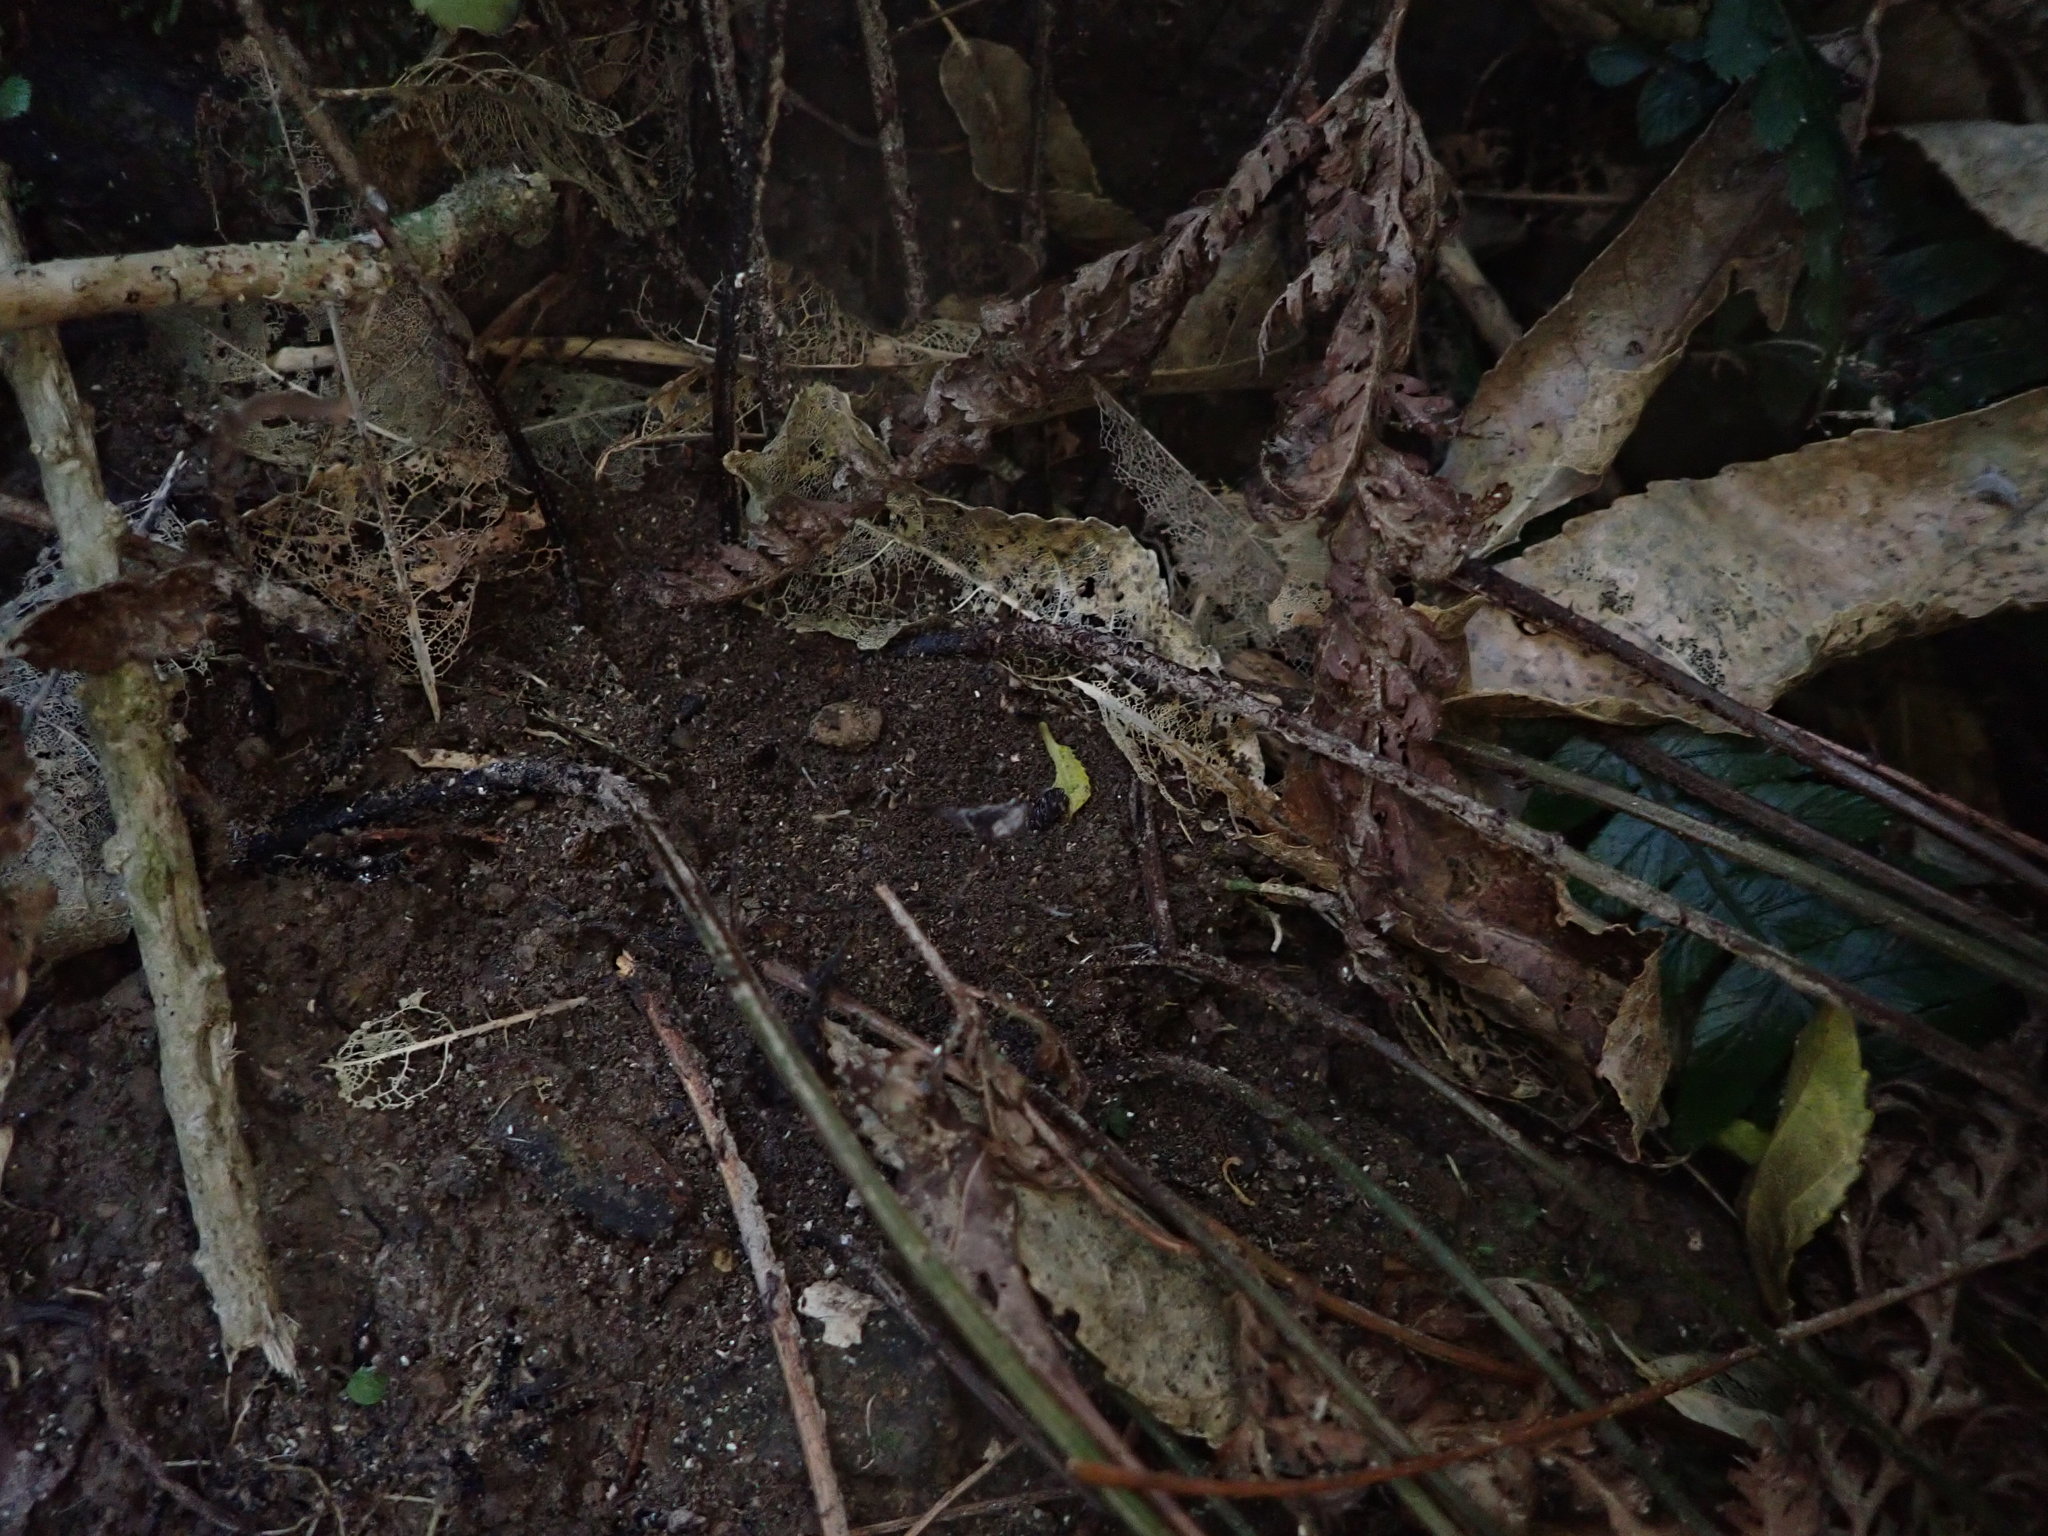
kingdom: Plantae
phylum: Tracheophyta
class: Polypodiopsida
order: Polypodiales
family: Dryopteridaceae
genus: Parapolystichum
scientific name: Parapolystichum microsorum
